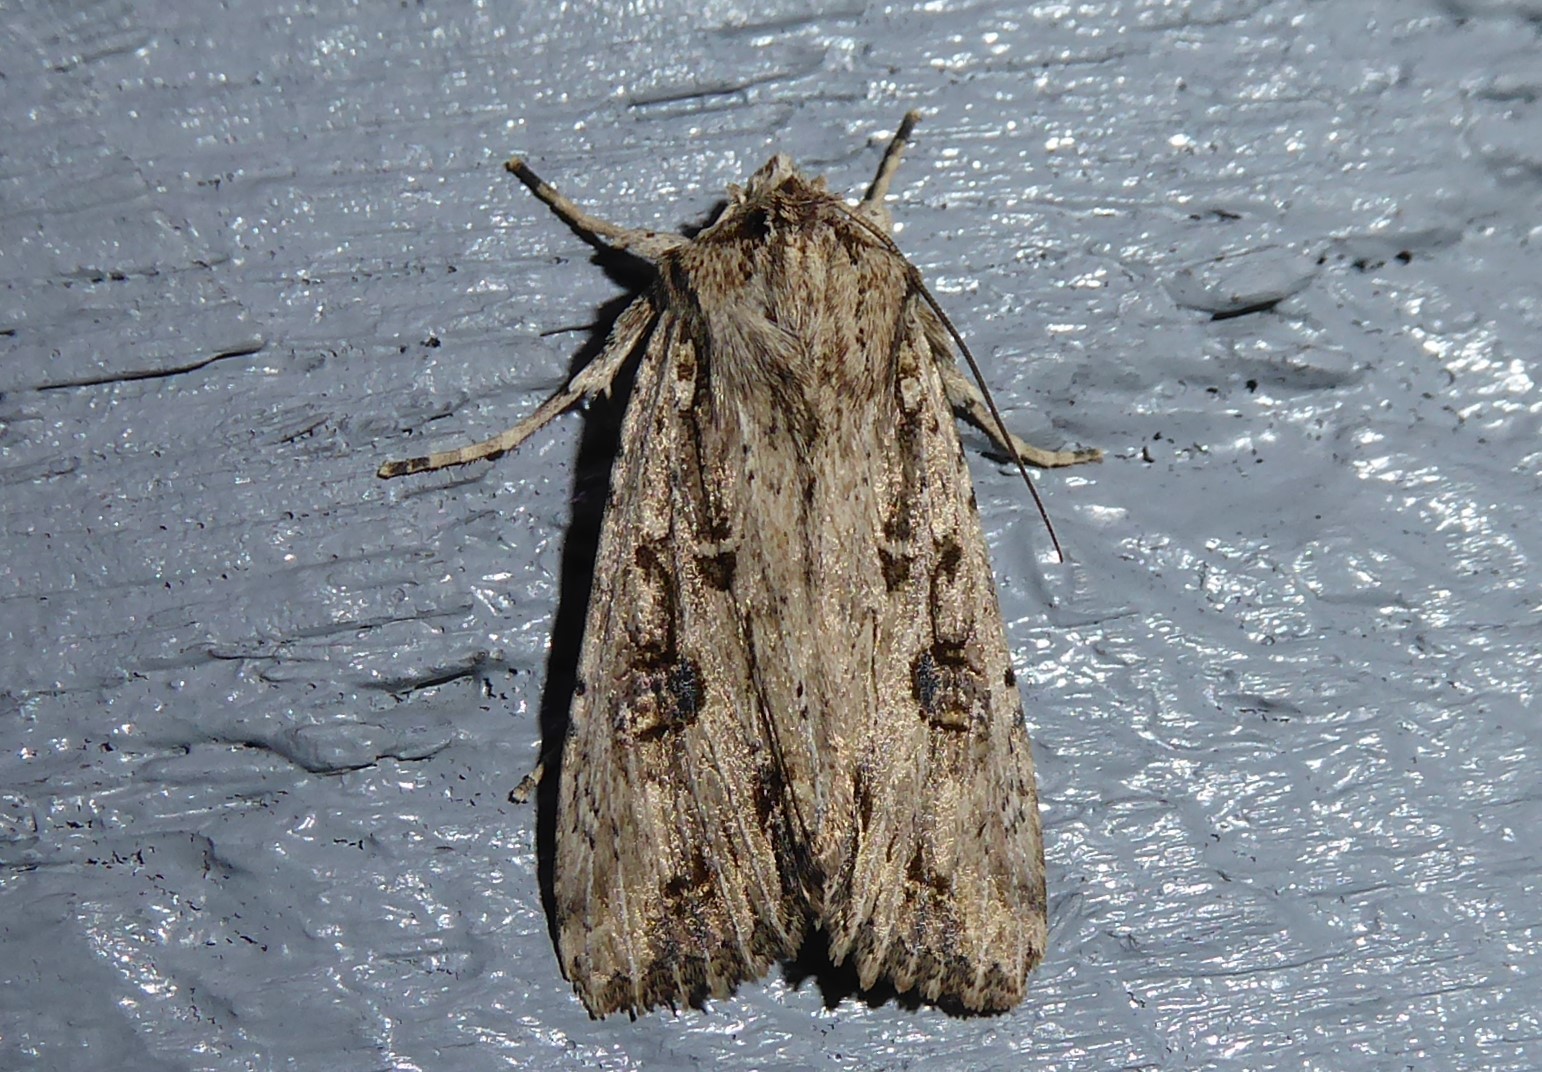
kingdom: Animalia
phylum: Arthropoda
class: Insecta
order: Lepidoptera
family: Noctuidae
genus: Ichneutica
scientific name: Ichneutica lignana
